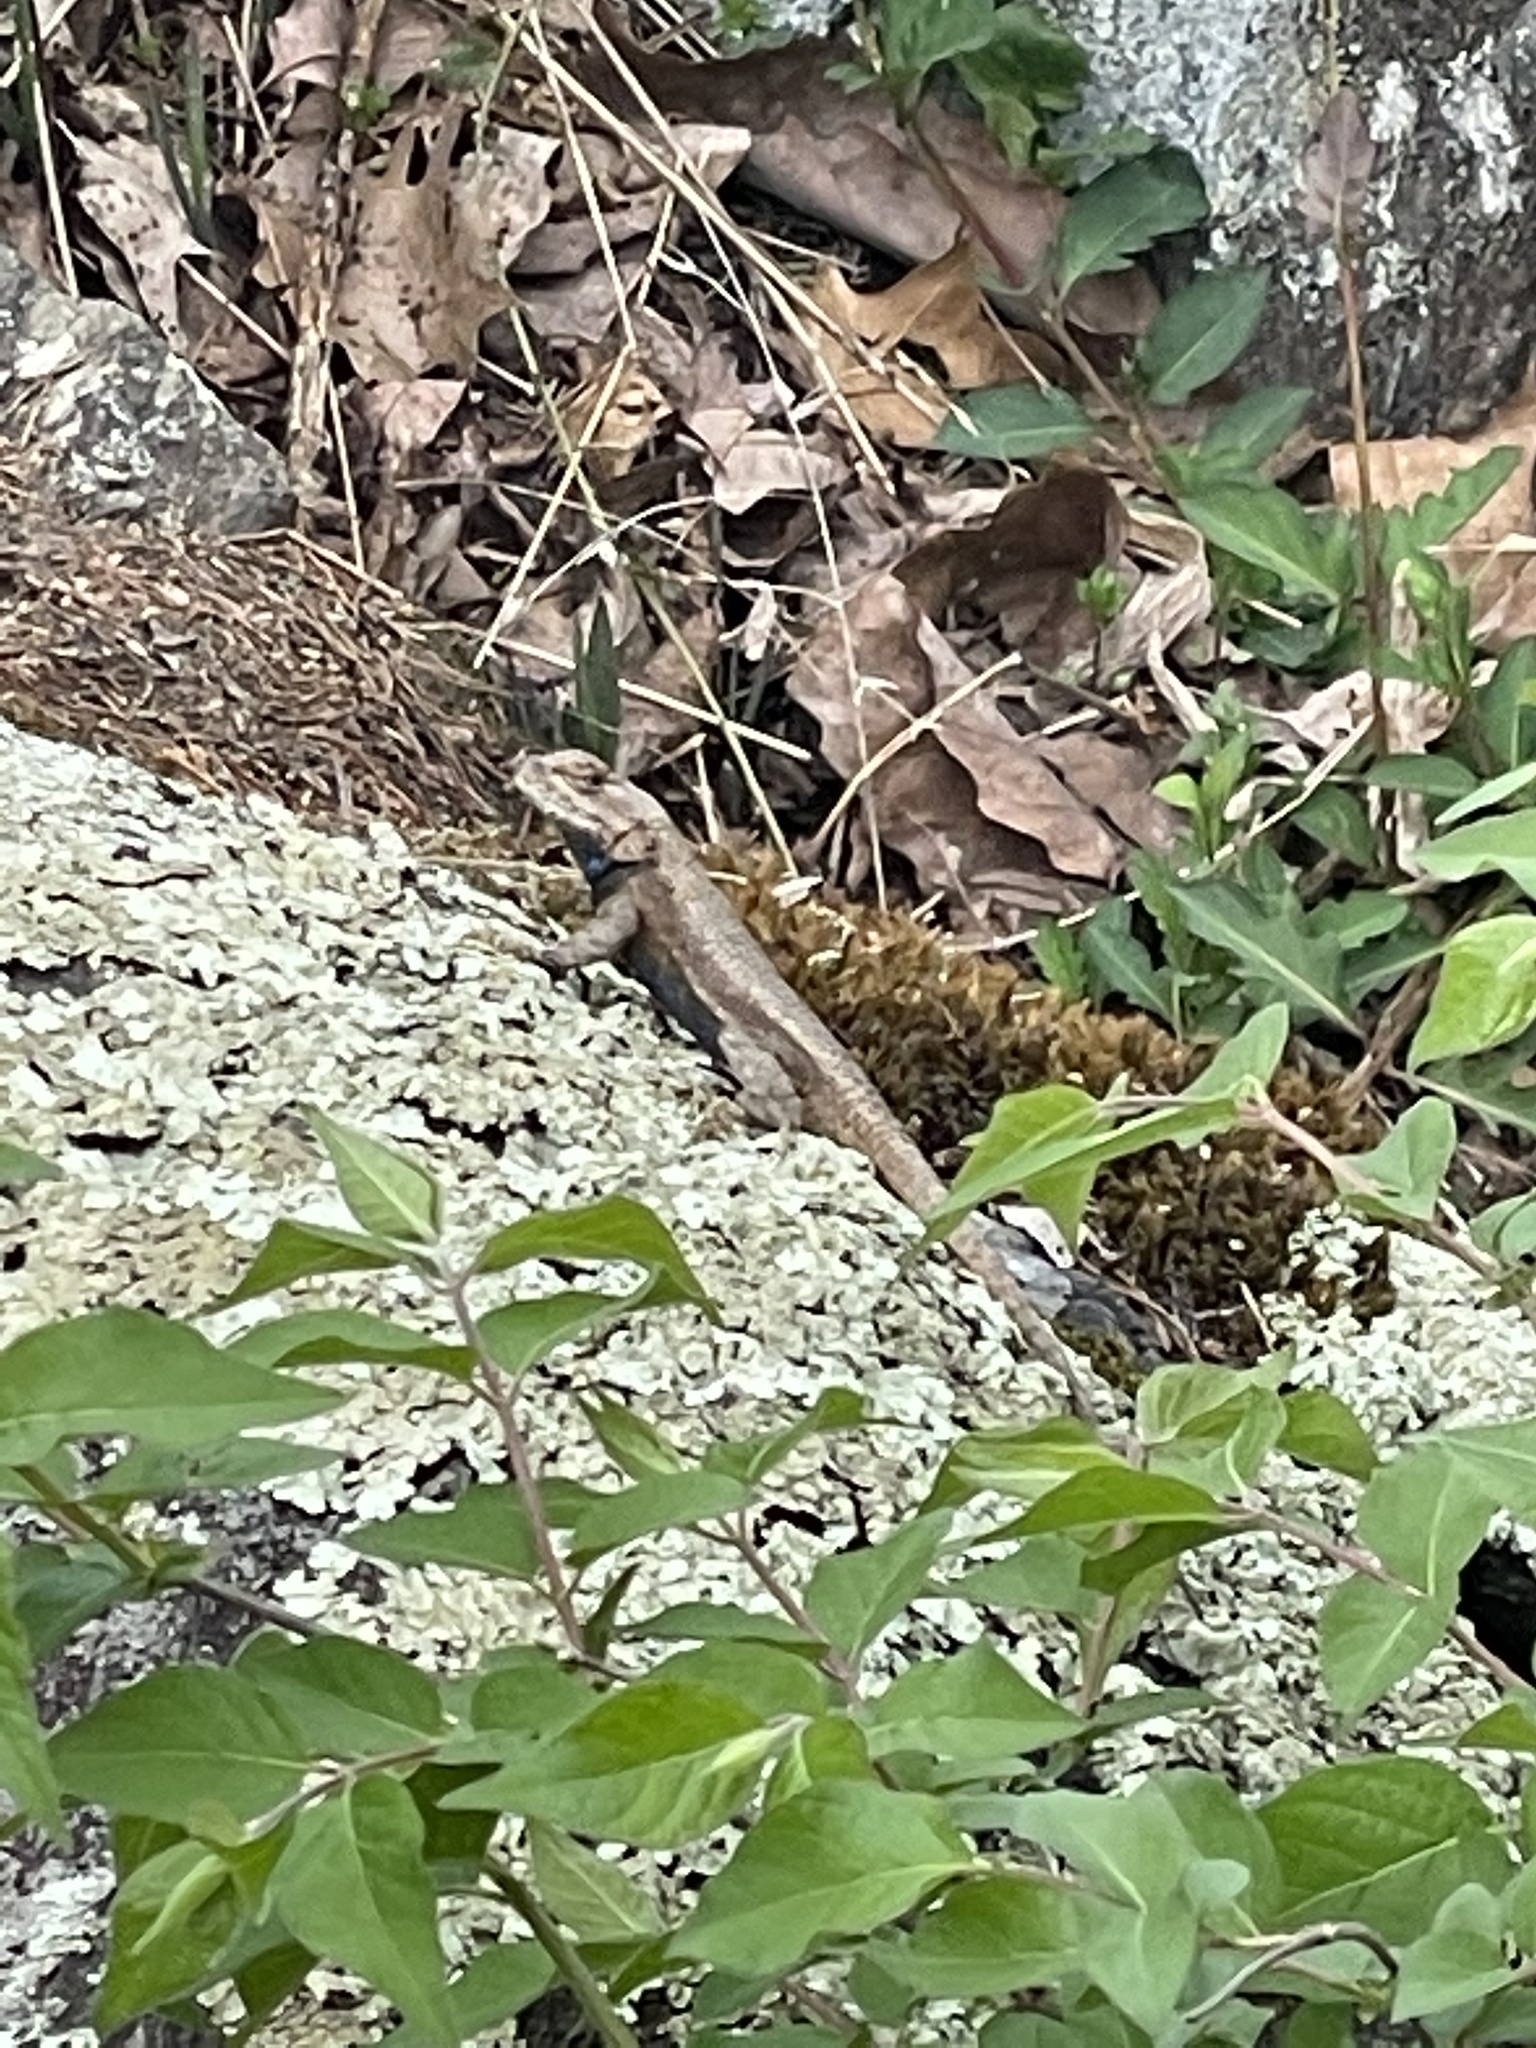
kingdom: Animalia
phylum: Chordata
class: Squamata
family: Phrynosomatidae
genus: Sceloporus
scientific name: Sceloporus undulatus
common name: Eastern fence lizard
